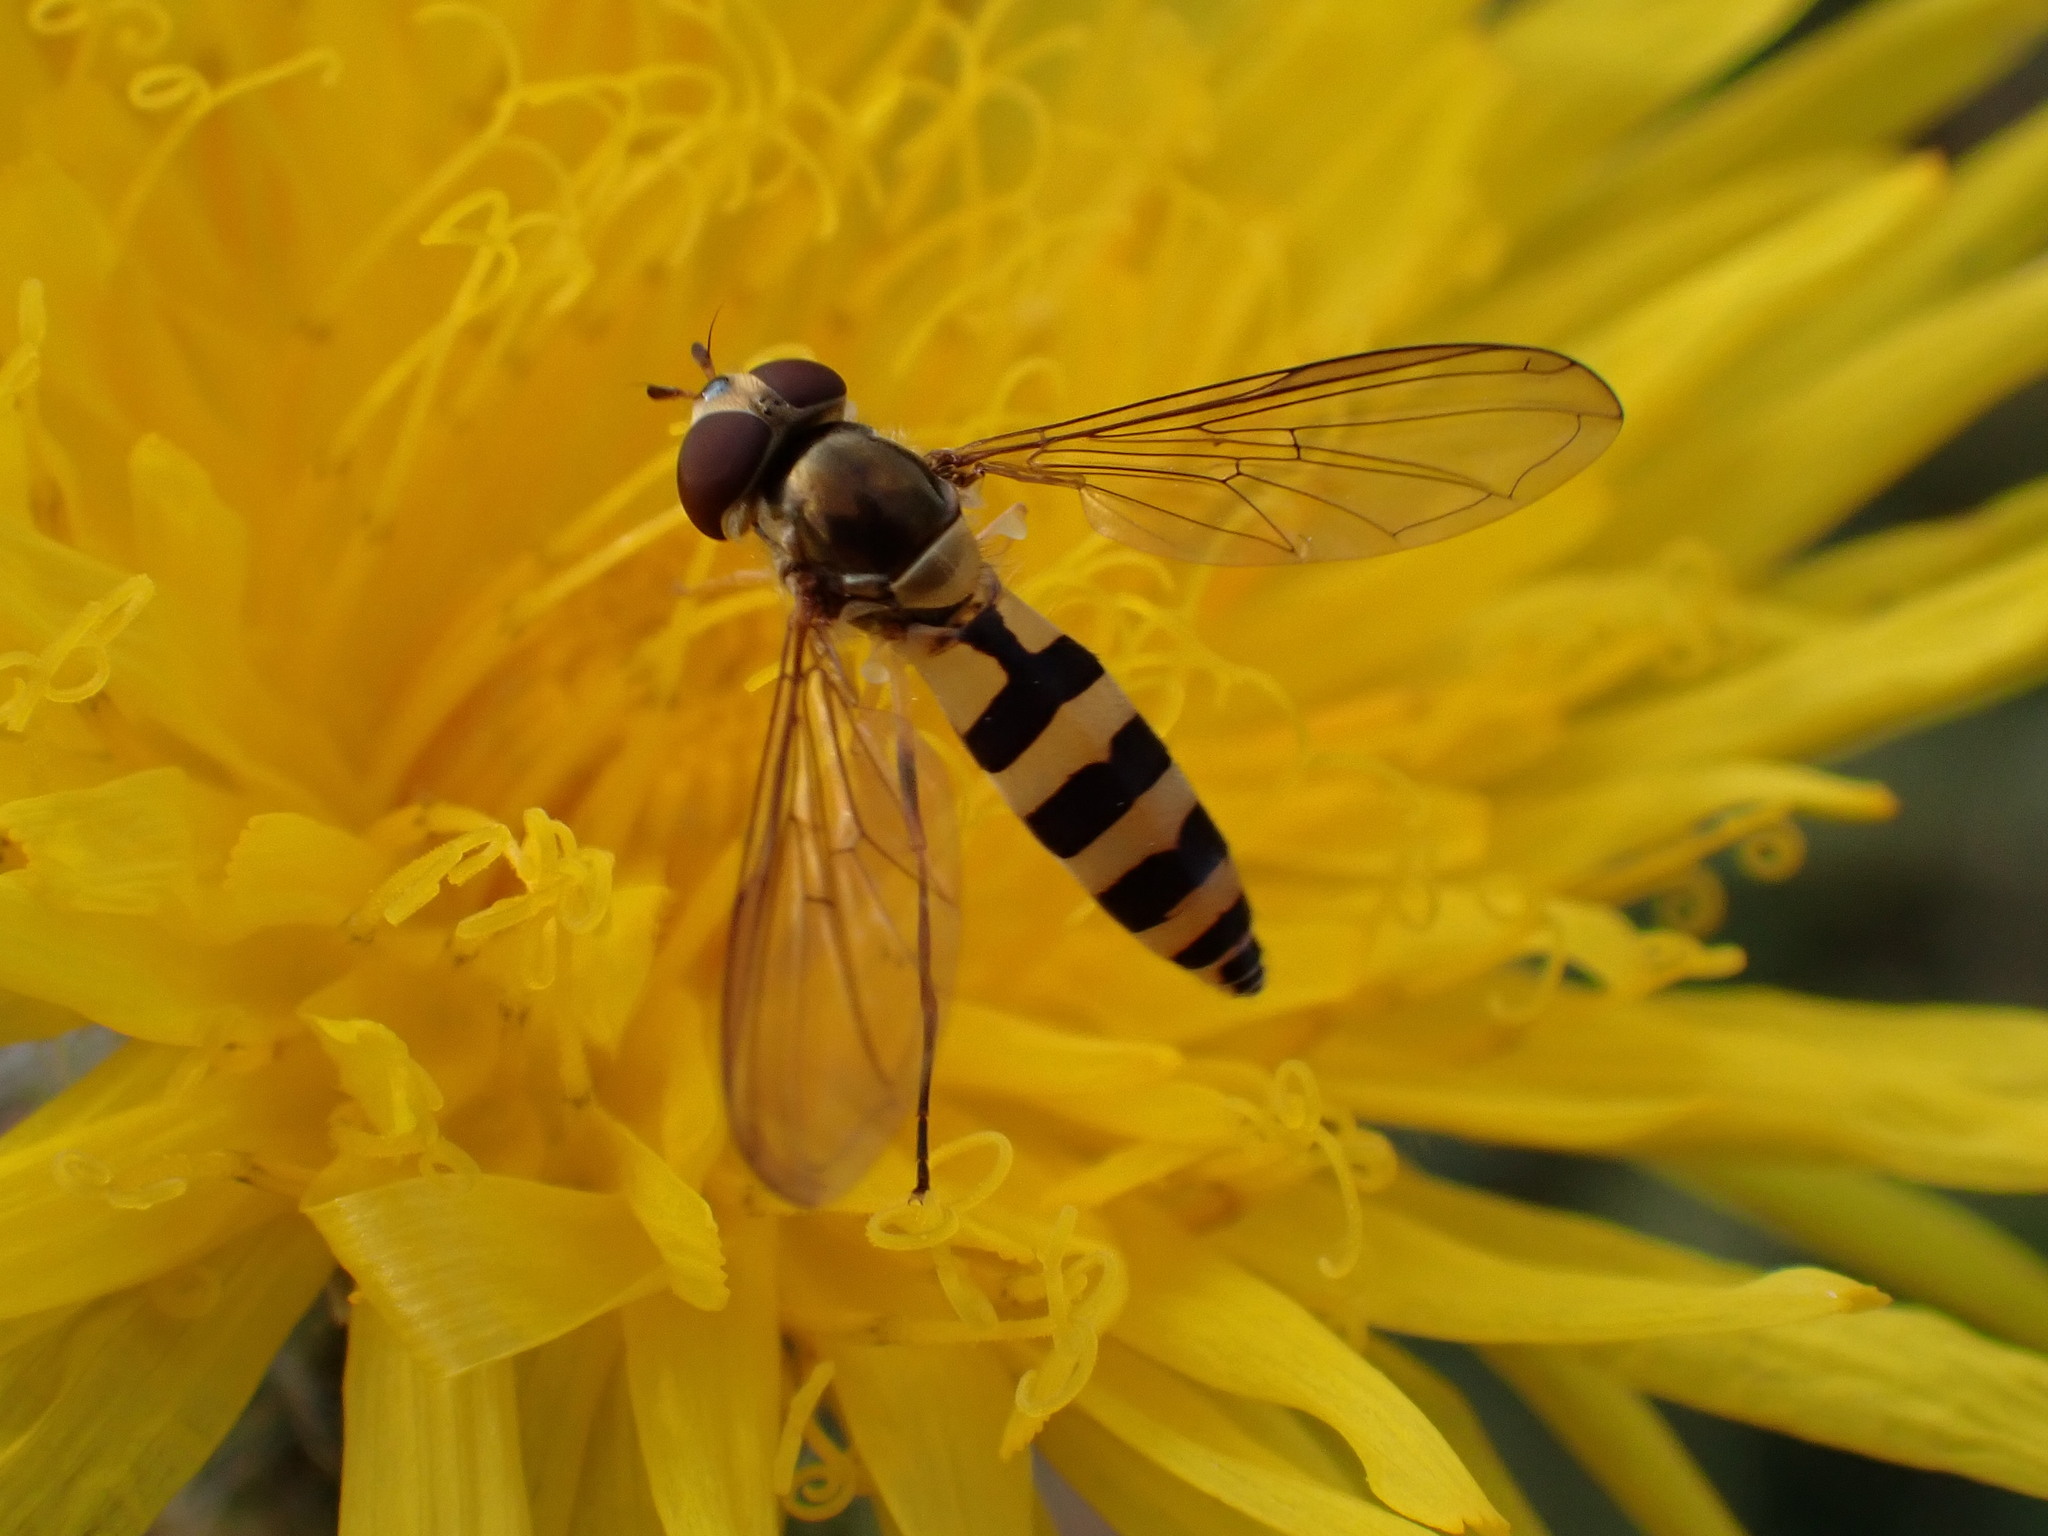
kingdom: Animalia
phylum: Arthropoda
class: Insecta
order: Diptera
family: Syrphidae
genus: Meliscaeva
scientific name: Meliscaeva cinctella
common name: American thintail fly
